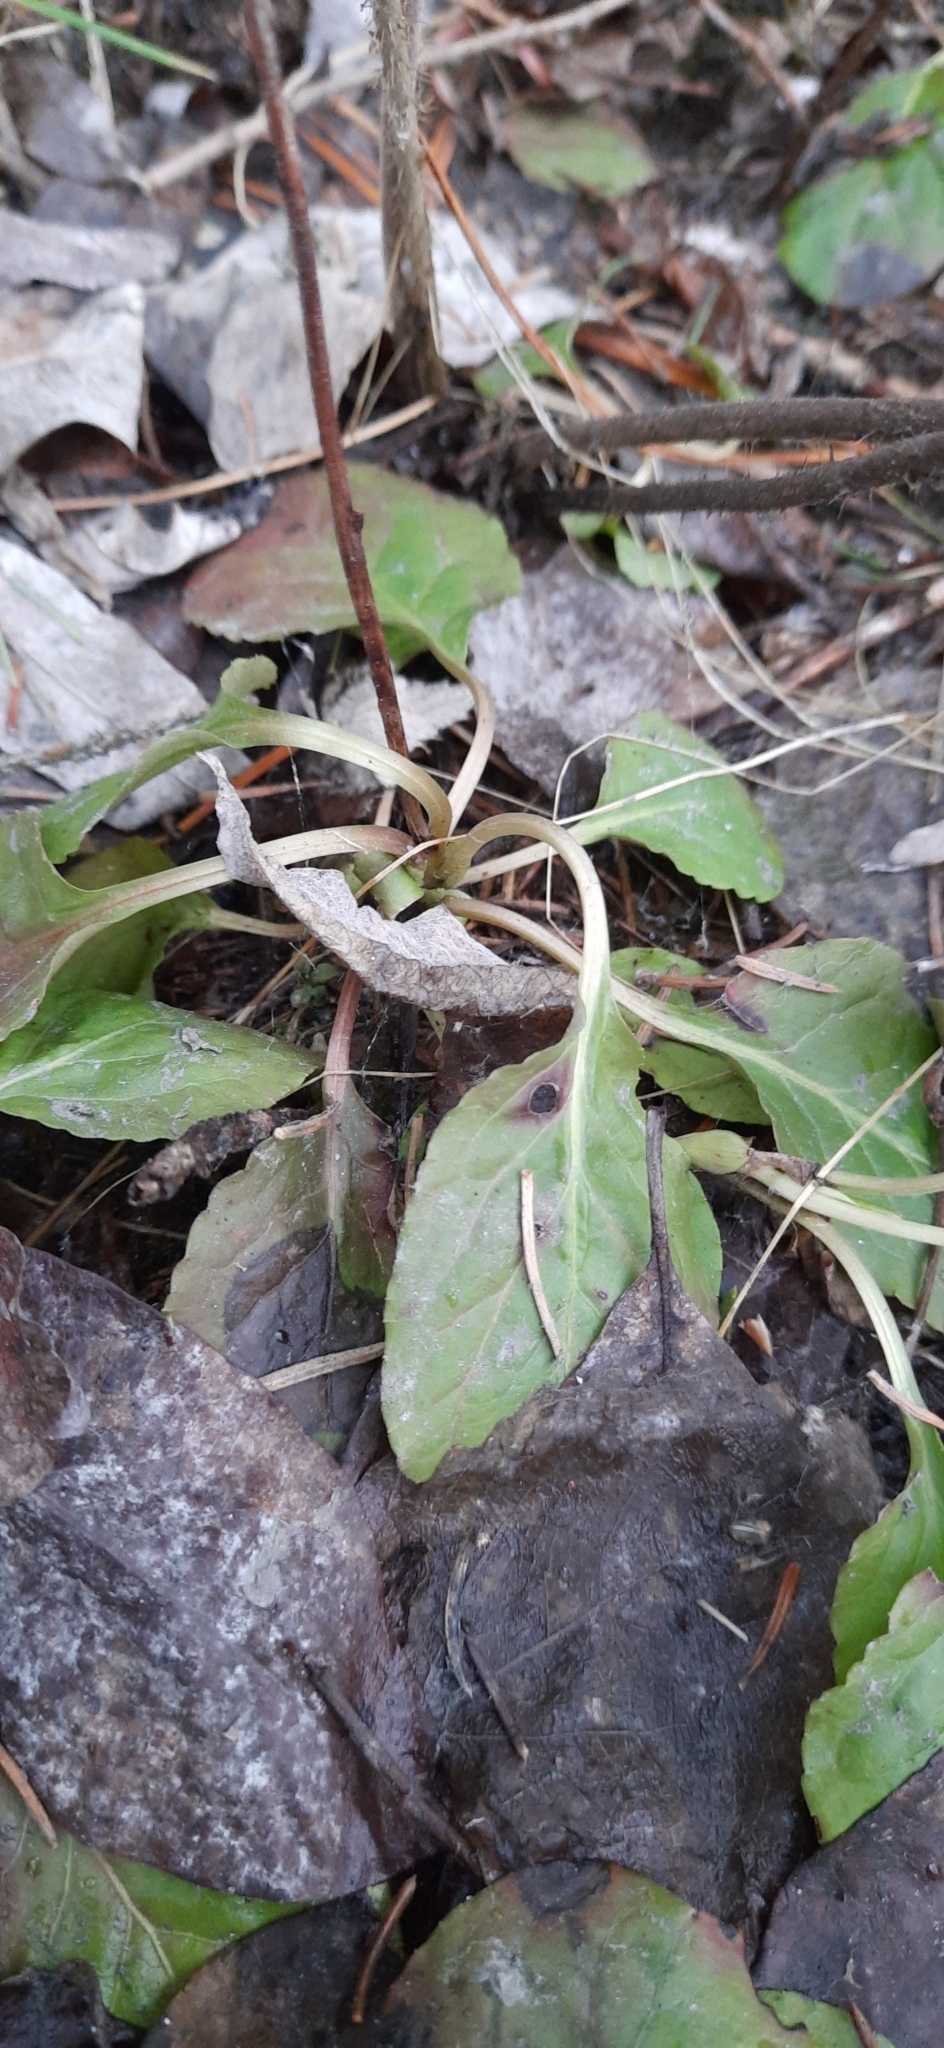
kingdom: Plantae
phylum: Tracheophyta
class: Magnoliopsida
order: Ericales
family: Ericaceae
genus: Orthilia
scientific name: Orthilia secunda
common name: One-sided orthilia
